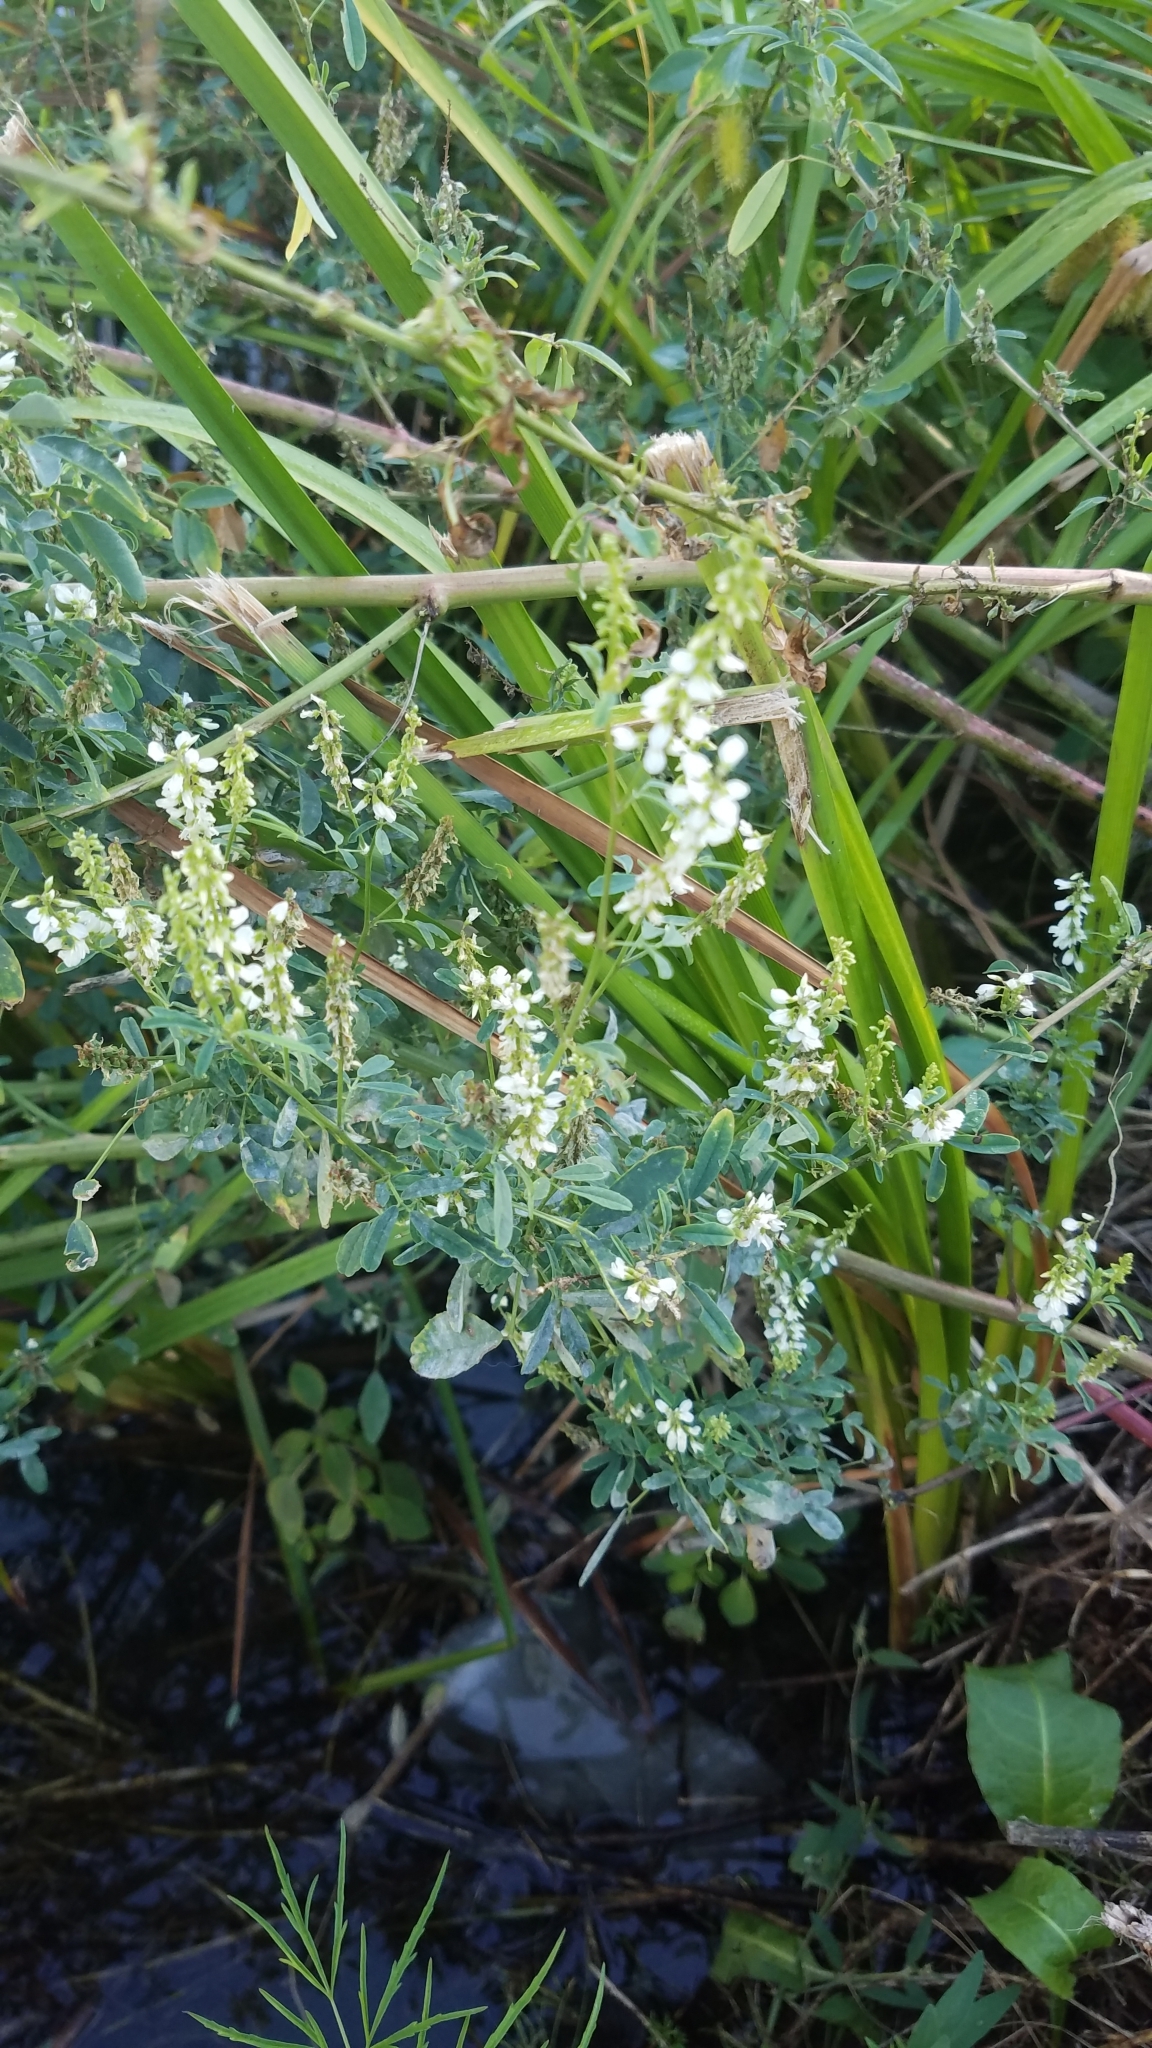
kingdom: Plantae
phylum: Tracheophyta
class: Magnoliopsida
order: Fabales
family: Fabaceae
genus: Melilotus
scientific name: Melilotus albus
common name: White melilot
